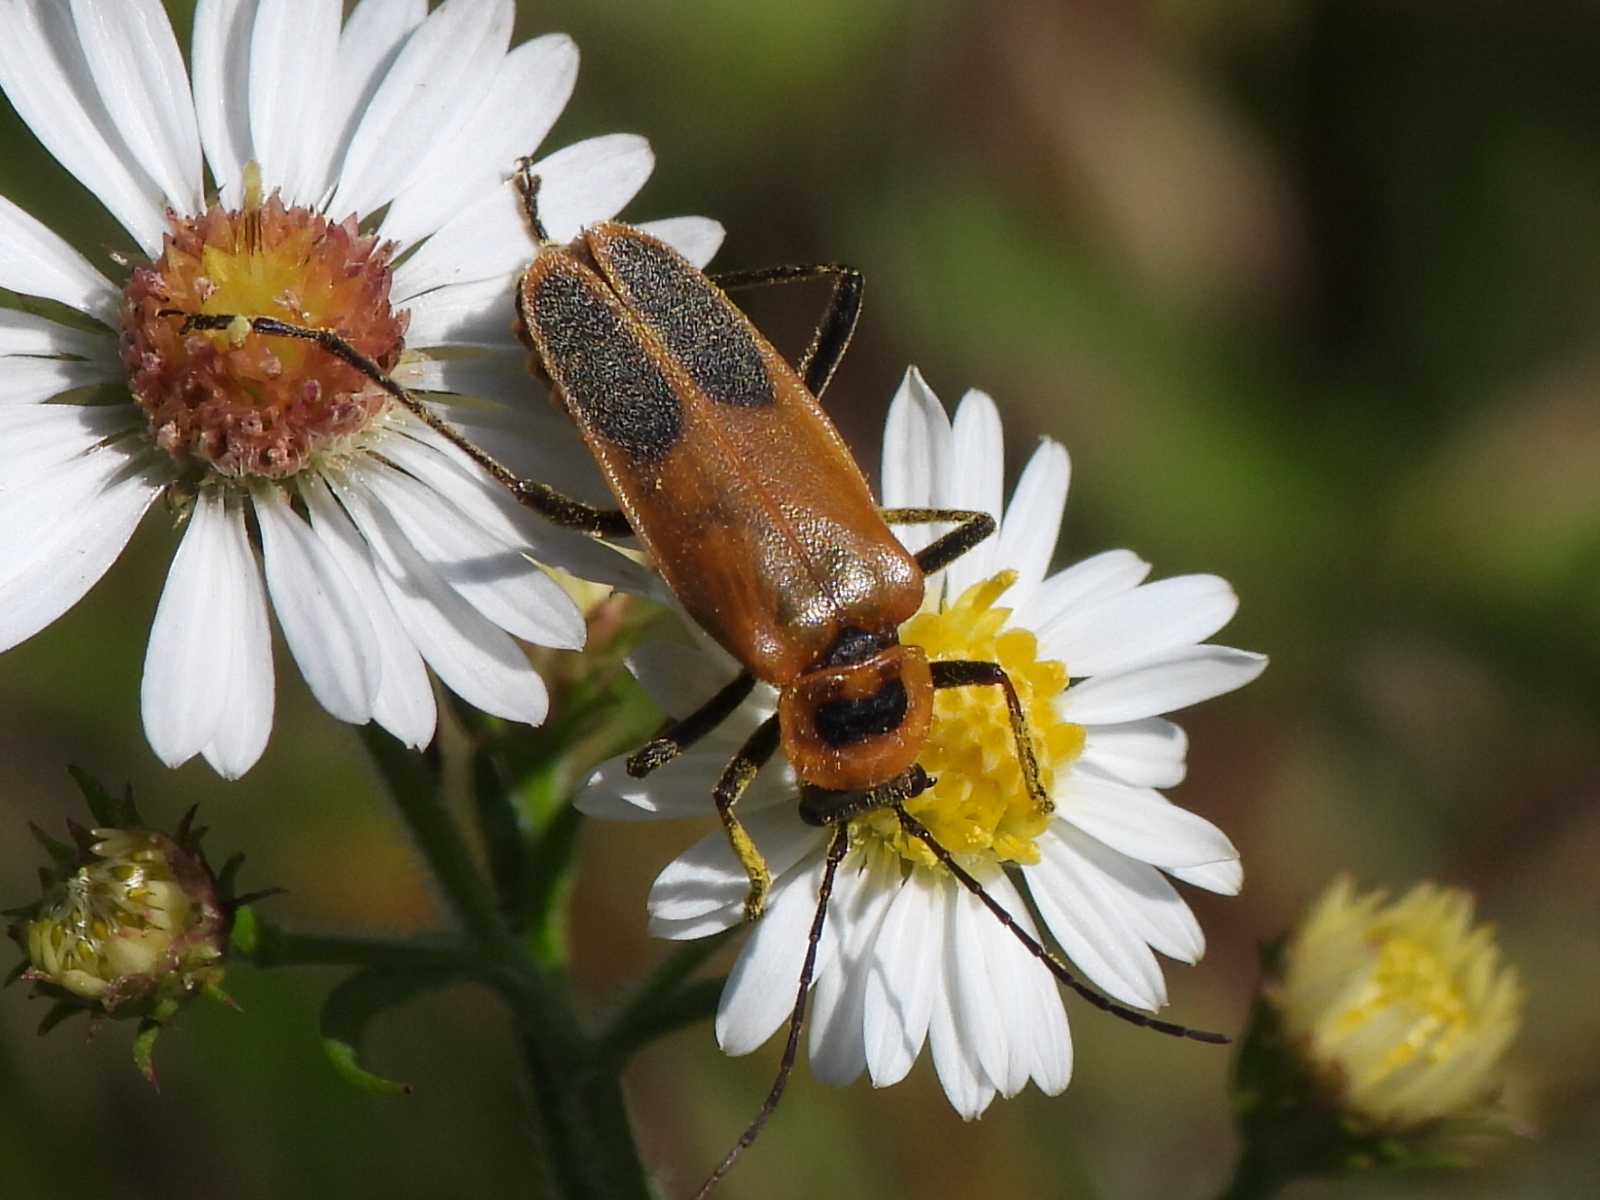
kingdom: Animalia
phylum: Arthropoda
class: Insecta
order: Coleoptera
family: Cantharidae
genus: Chauliognathus
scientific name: Chauliognathus pensylvanicus
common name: Goldenrod soldier beetle
